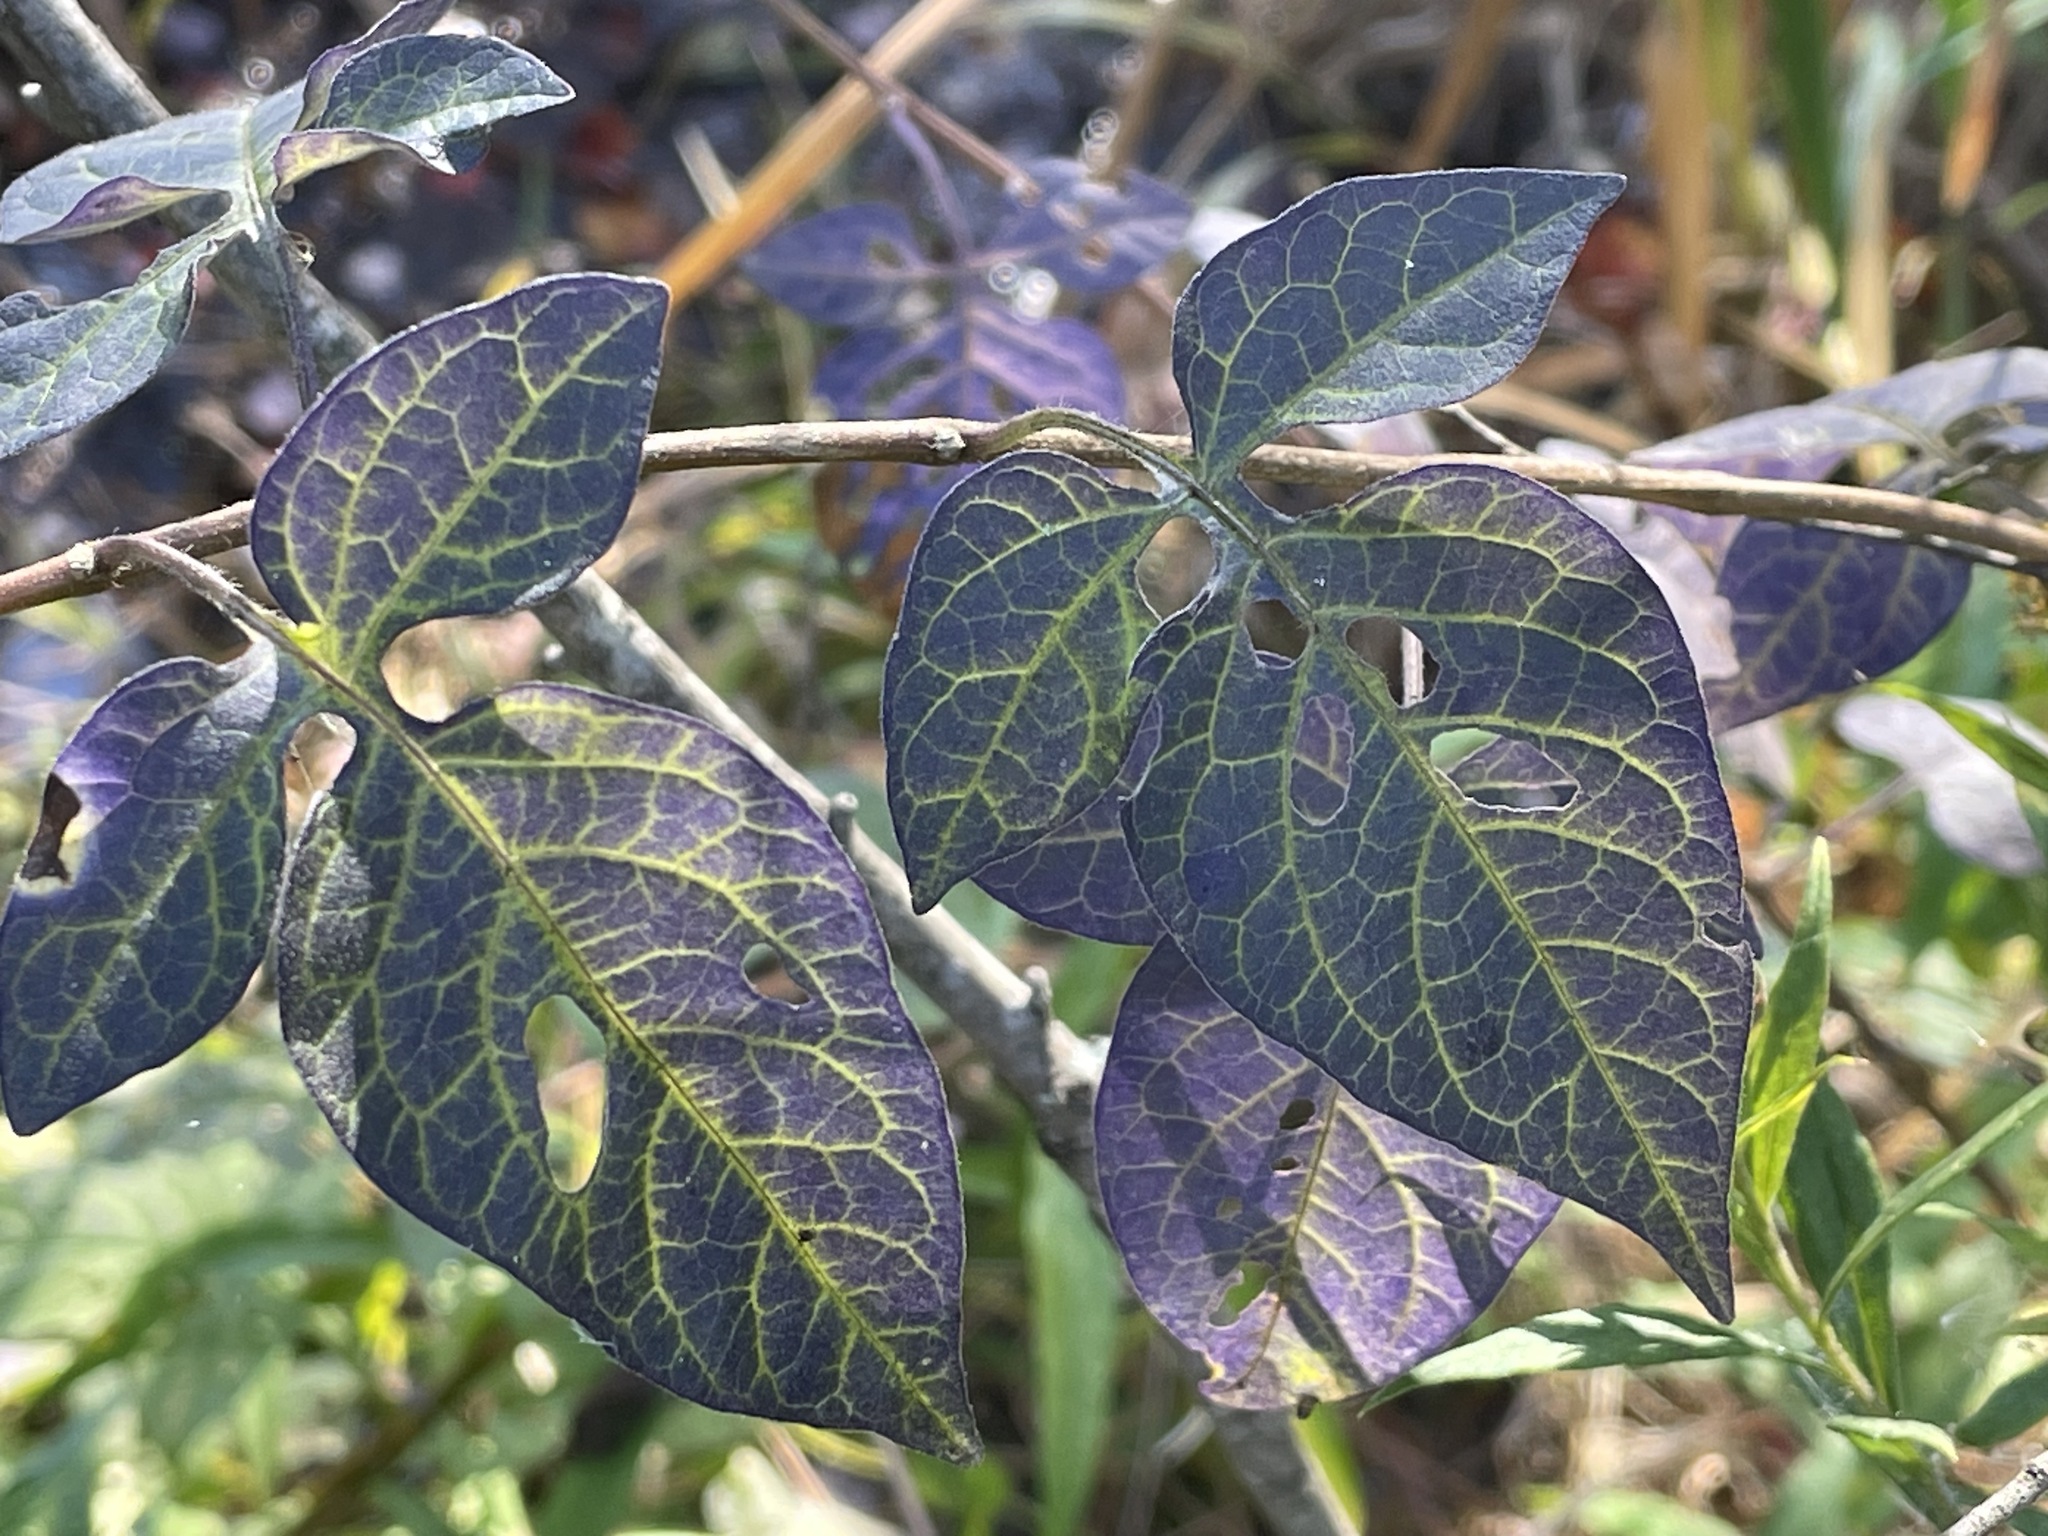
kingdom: Plantae
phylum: Tracheophyta
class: Magnoliopsida
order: Solanales
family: Solanaceae
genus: Solanum
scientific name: Solanum dulcamara
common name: Climbing nightshade
